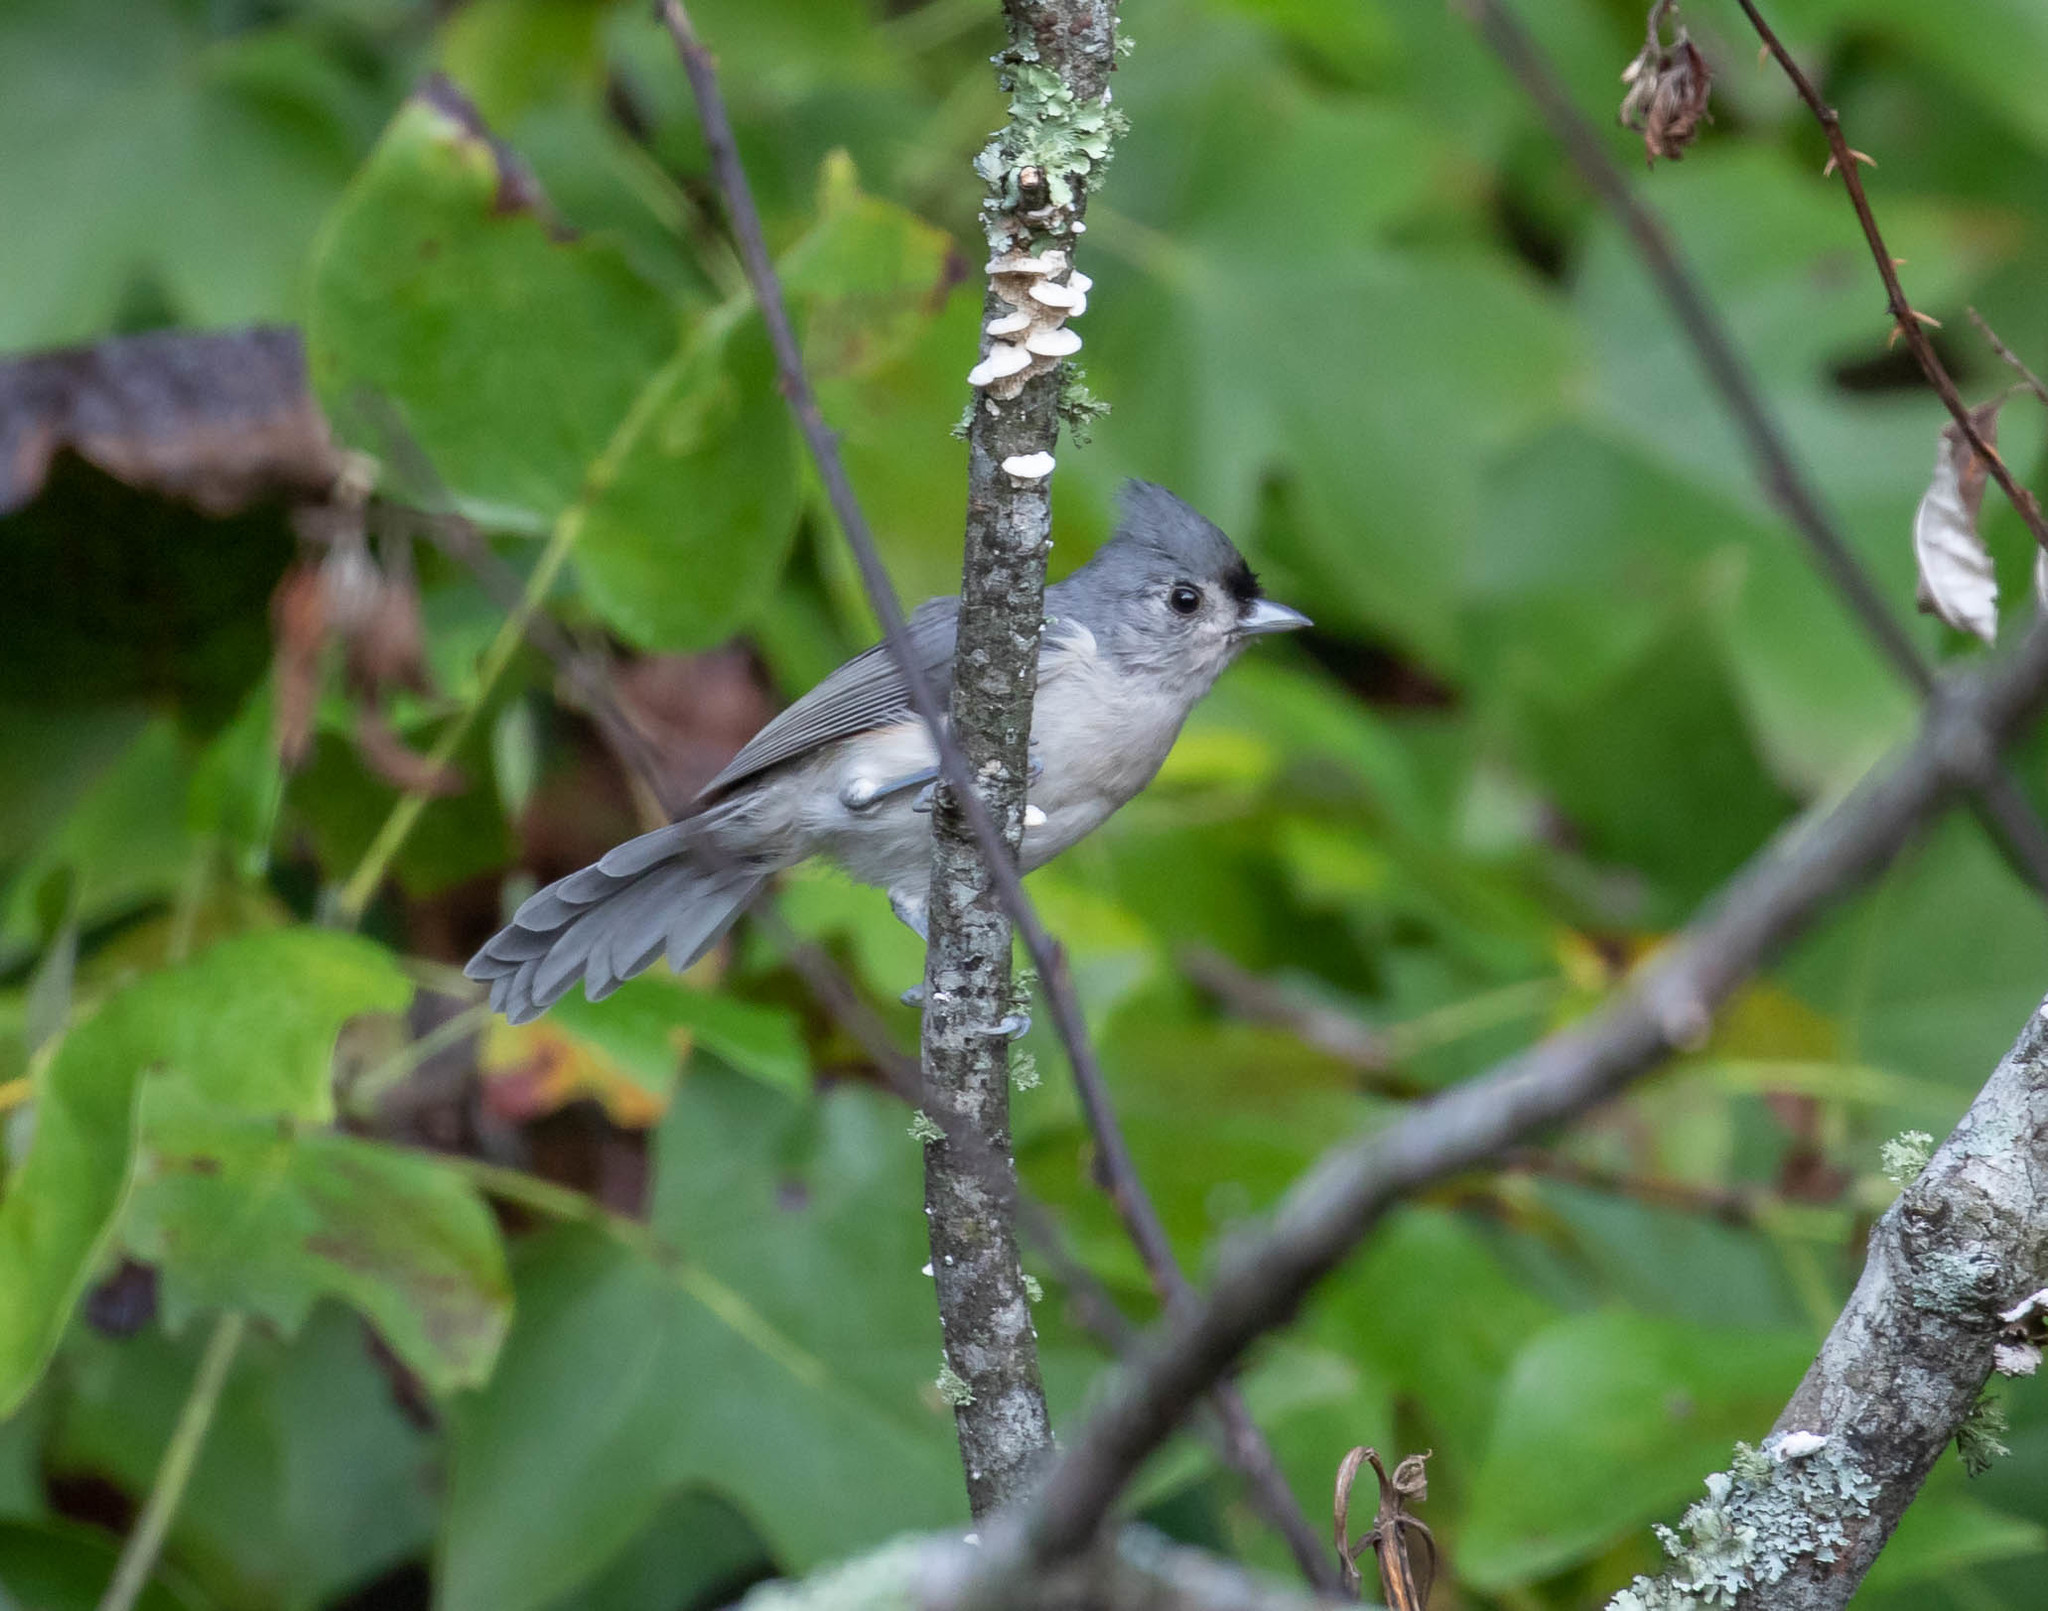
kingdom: Animalia
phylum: Chordata
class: Aves
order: Passeriformes
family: Paridae
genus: Baeolophus
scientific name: Baeolophus bicolor
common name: Tufted titmouse
